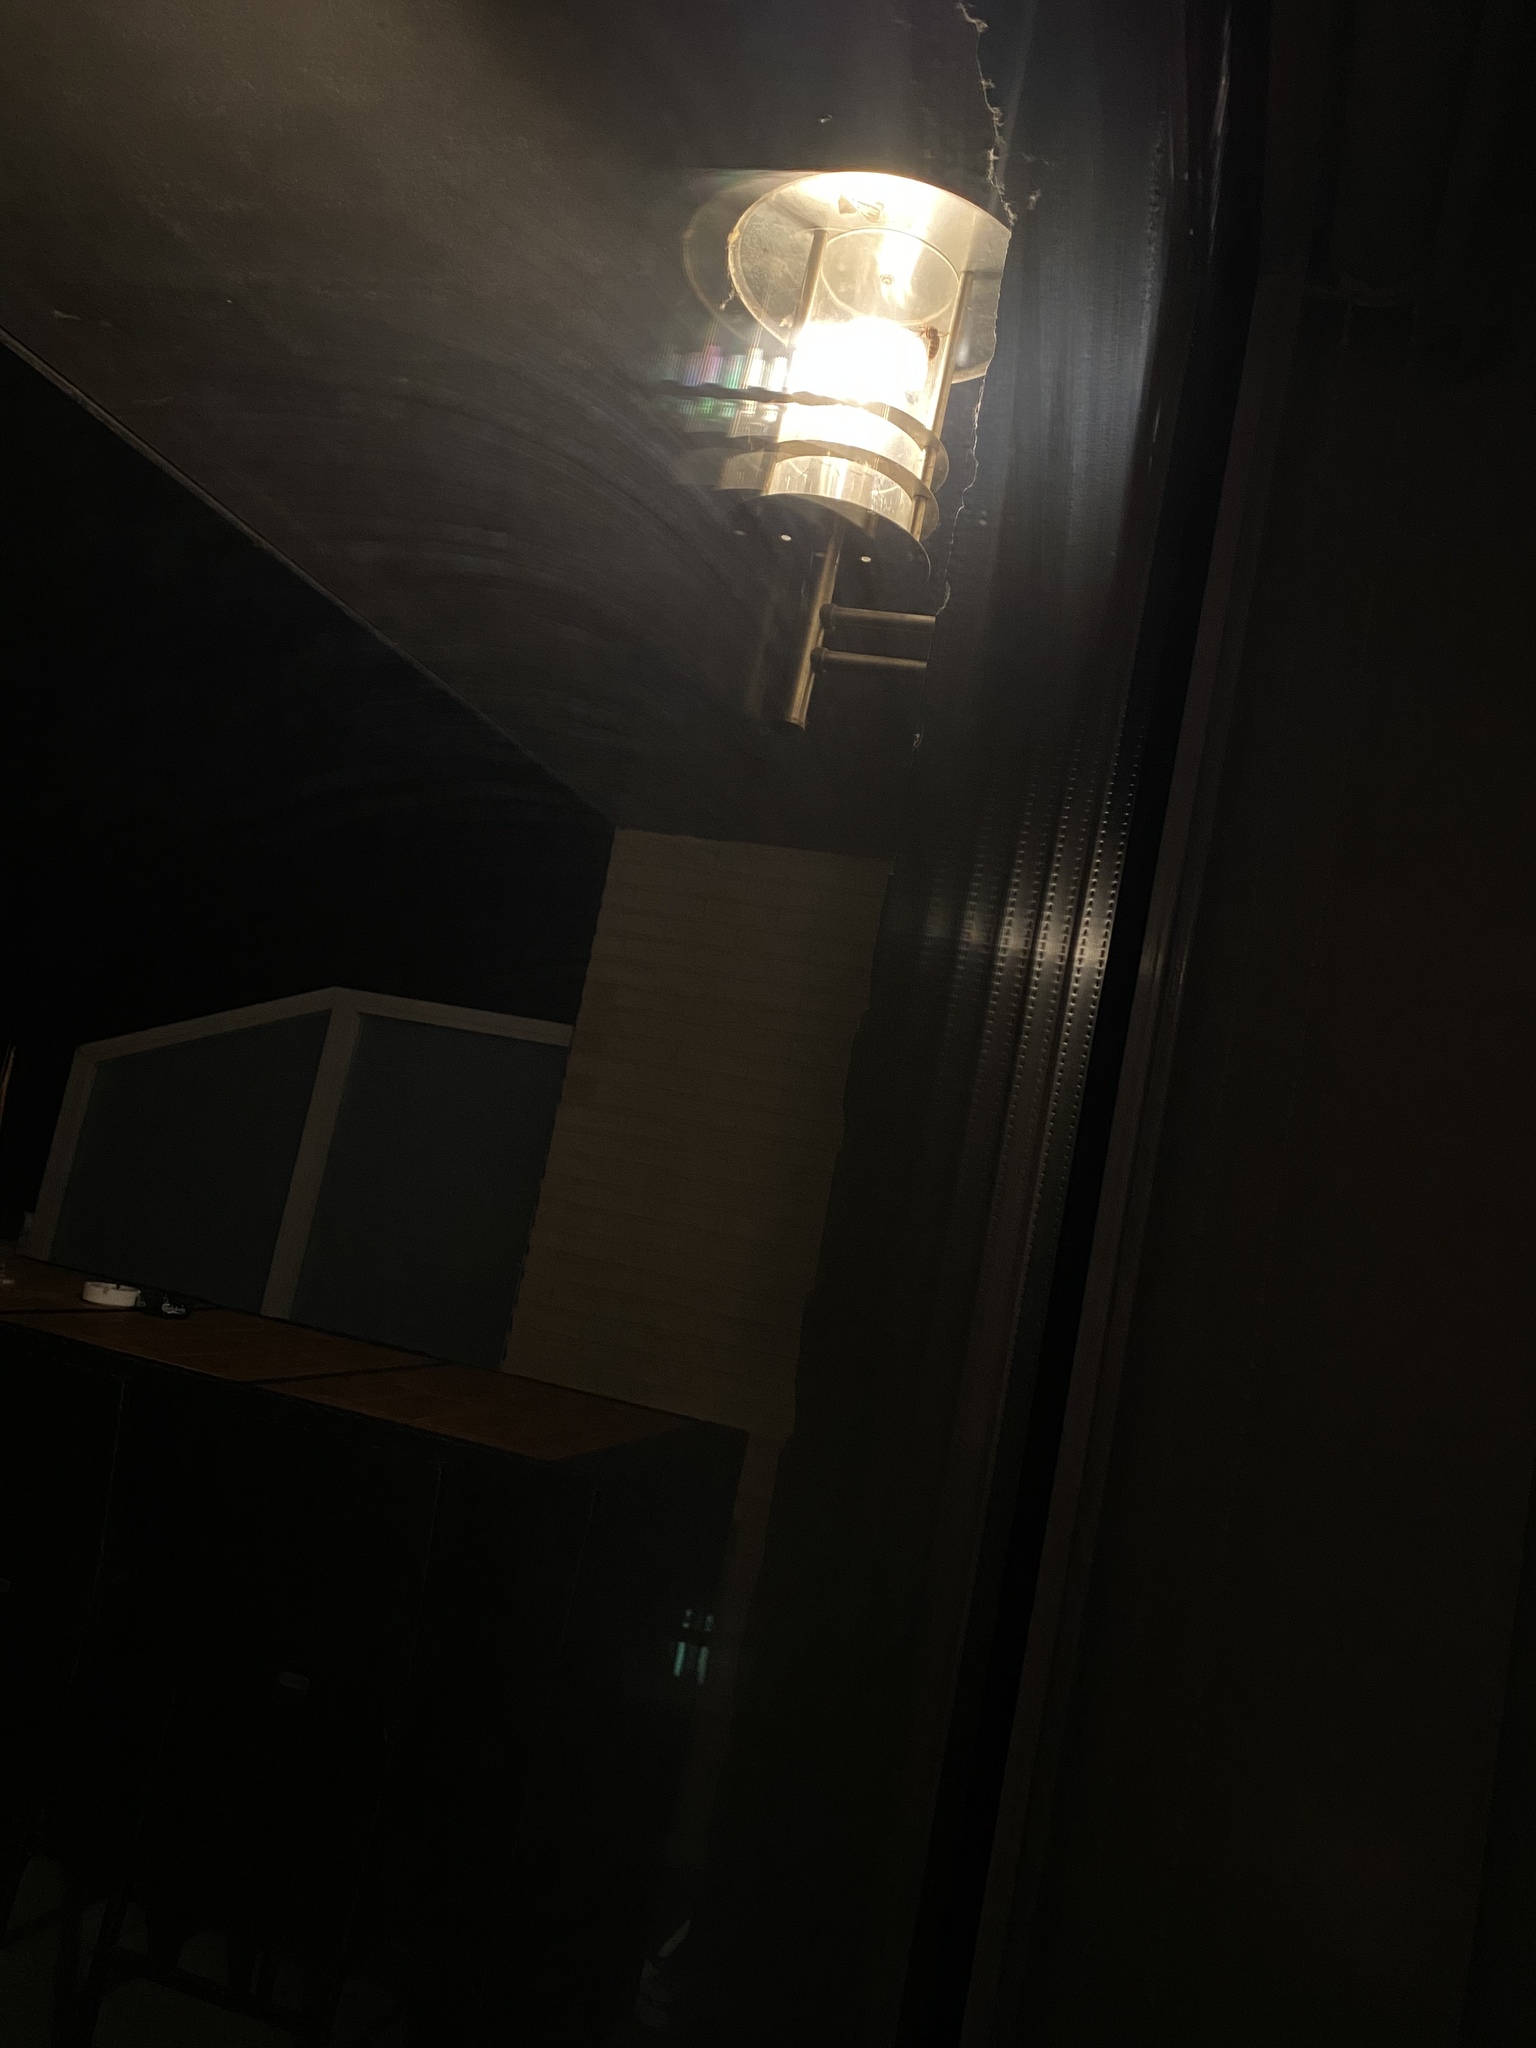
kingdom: Animalia
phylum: Arthropoda
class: Insecta
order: Hymenoptera
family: Vespidae
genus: Vespa
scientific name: Vespa crabro
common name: Hornet
